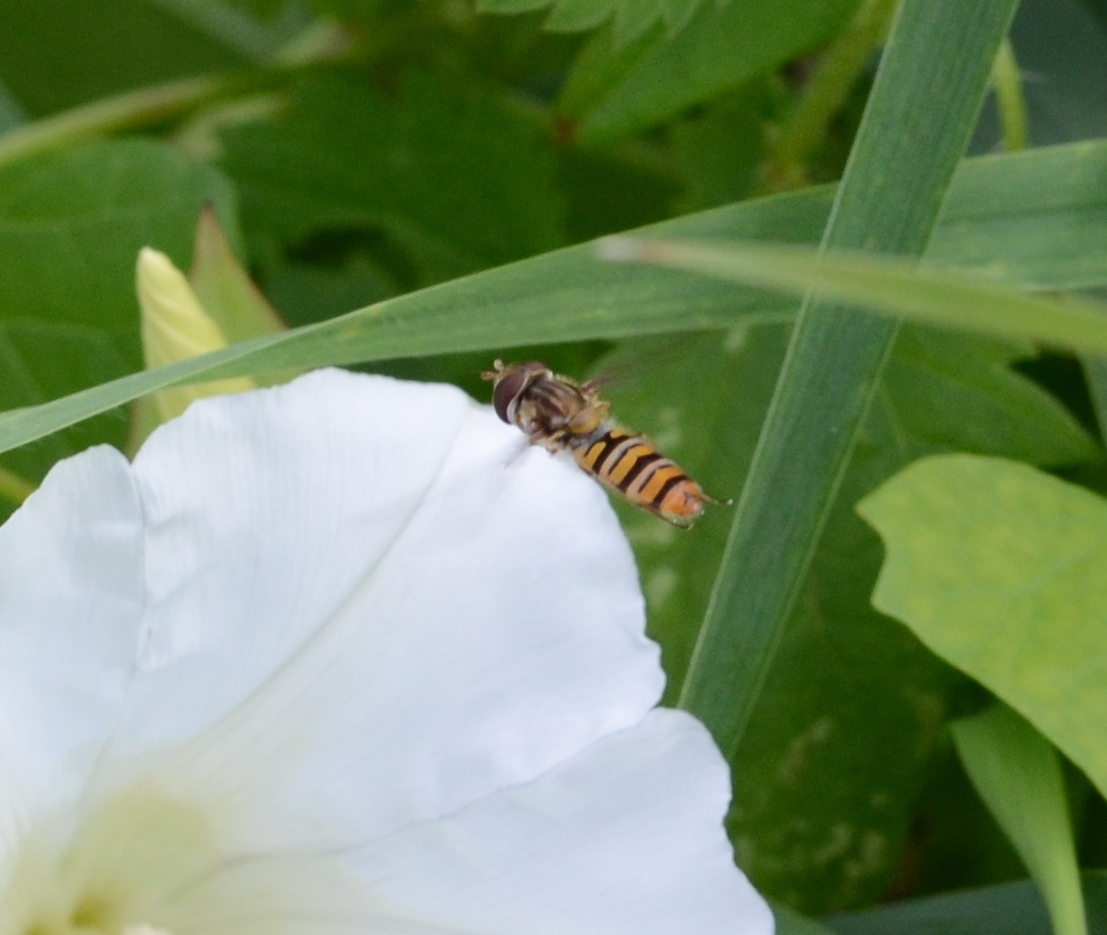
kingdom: Animalia
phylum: Arthropoda
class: Insecta
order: Diptera
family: Syrphidae
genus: Episyrphus
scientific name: Episyrphus balteatus
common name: Marmalade hoverfly
